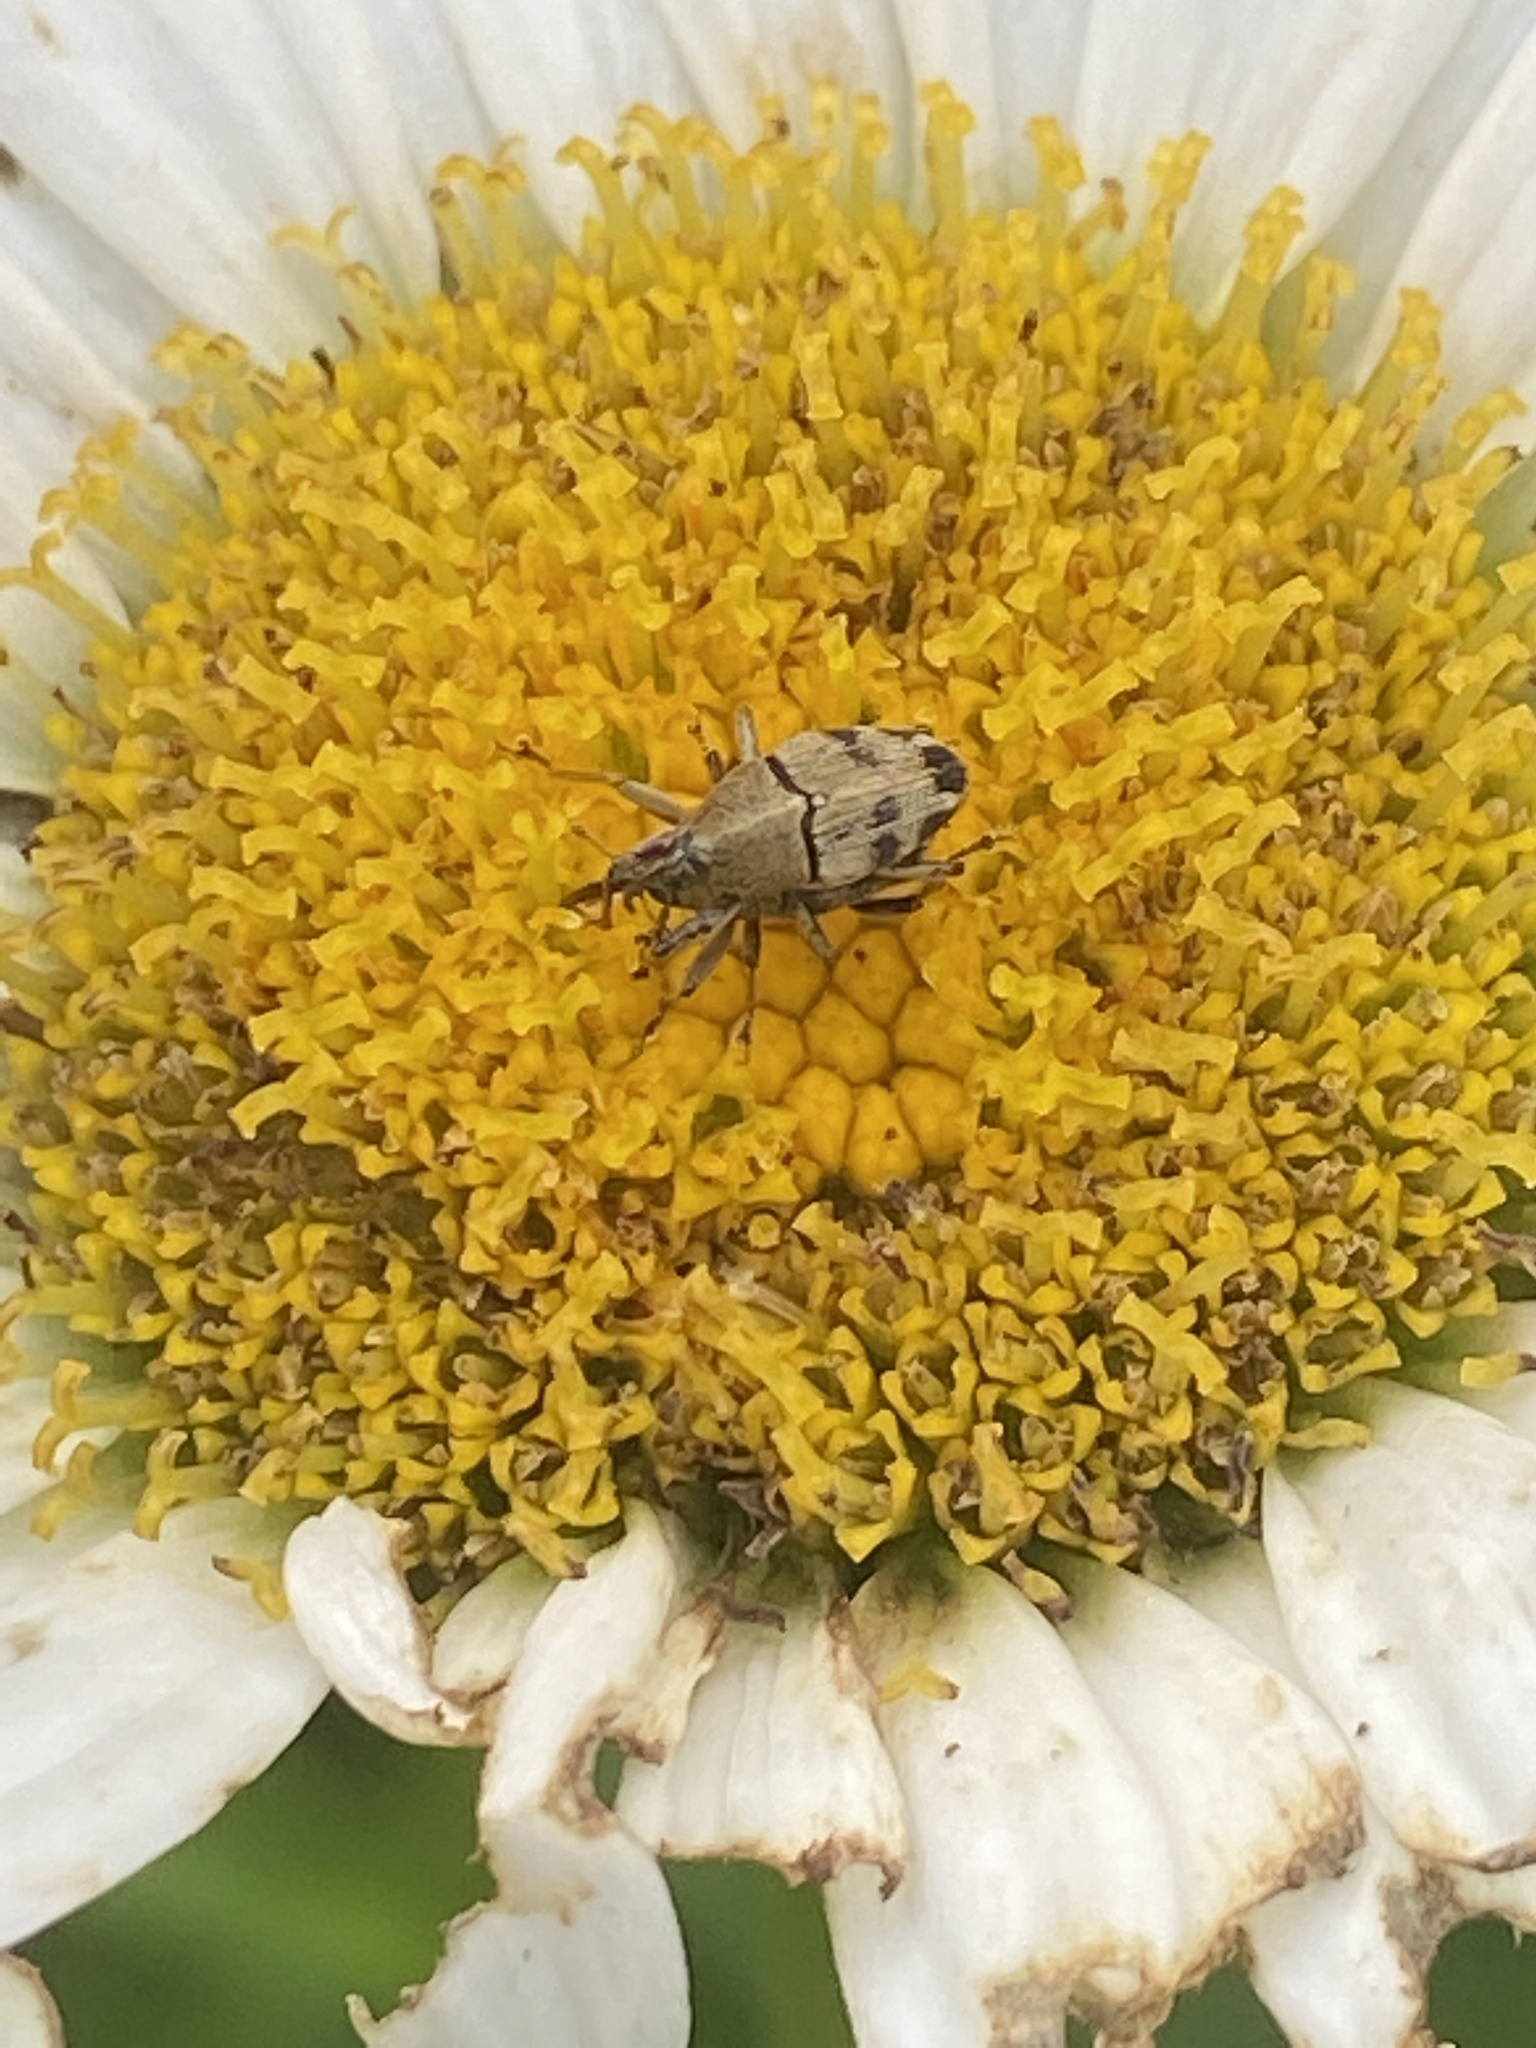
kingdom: Animalia
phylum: Arthropoda
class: Insecta
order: Coleoptera
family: Curculionidae
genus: Geraeus
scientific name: Geraeus
